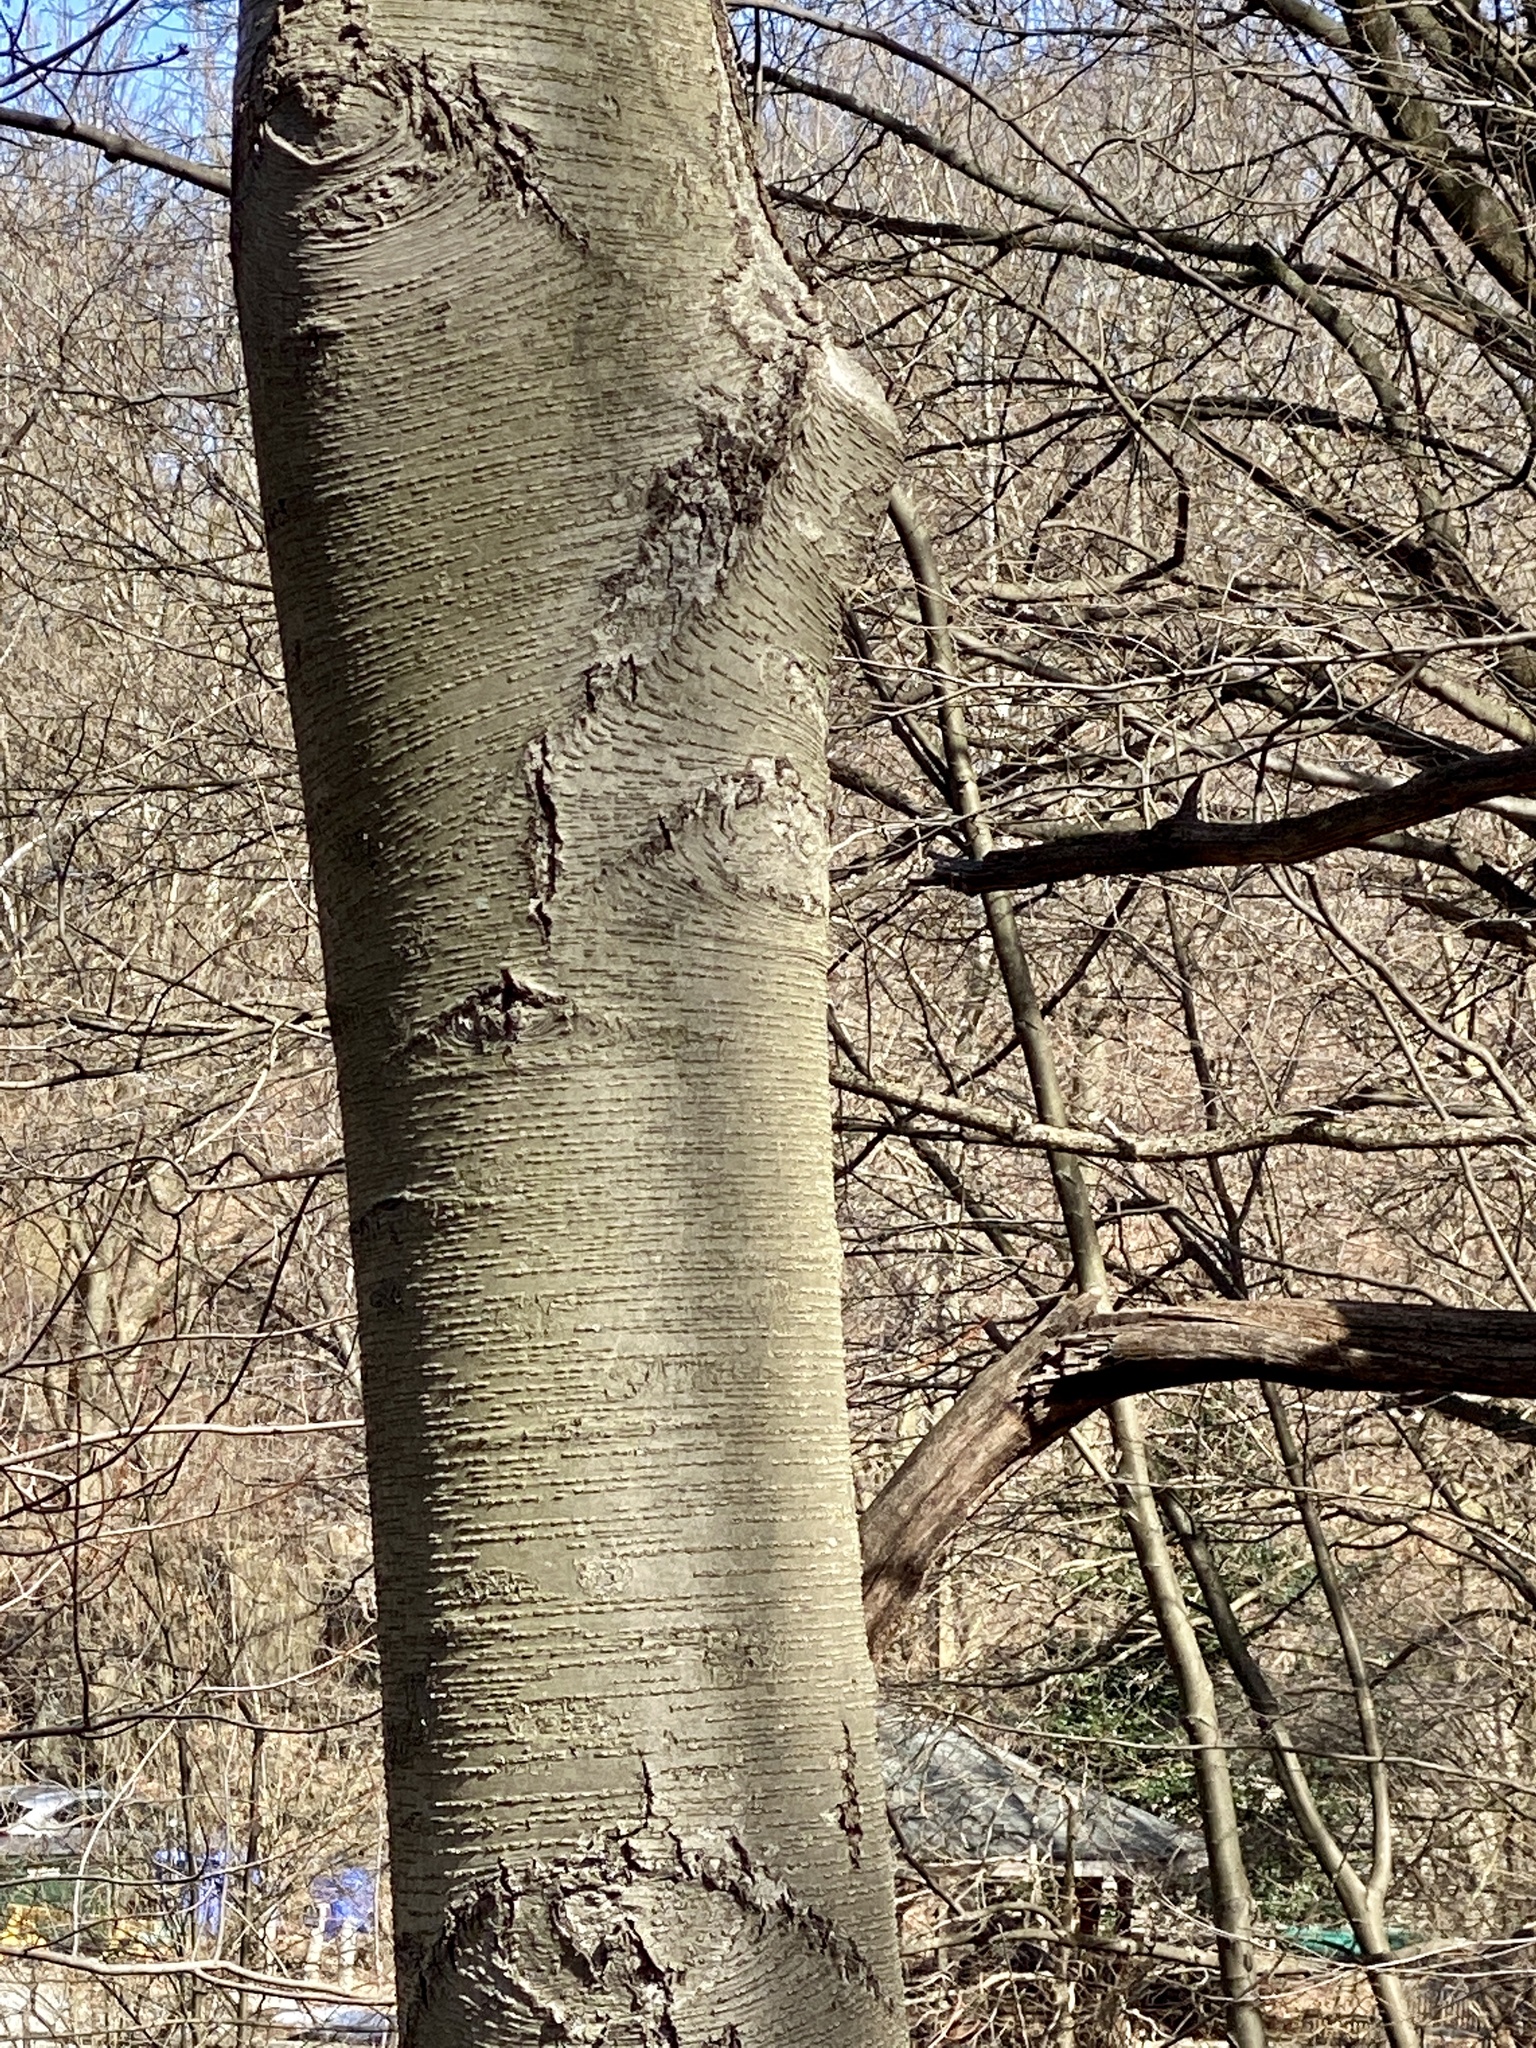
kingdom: Plantae
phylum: Tracheophyta
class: Magnoliopsida
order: Fagales
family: Betulaceae
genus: Betula
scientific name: Betula lenta
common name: Black birch
